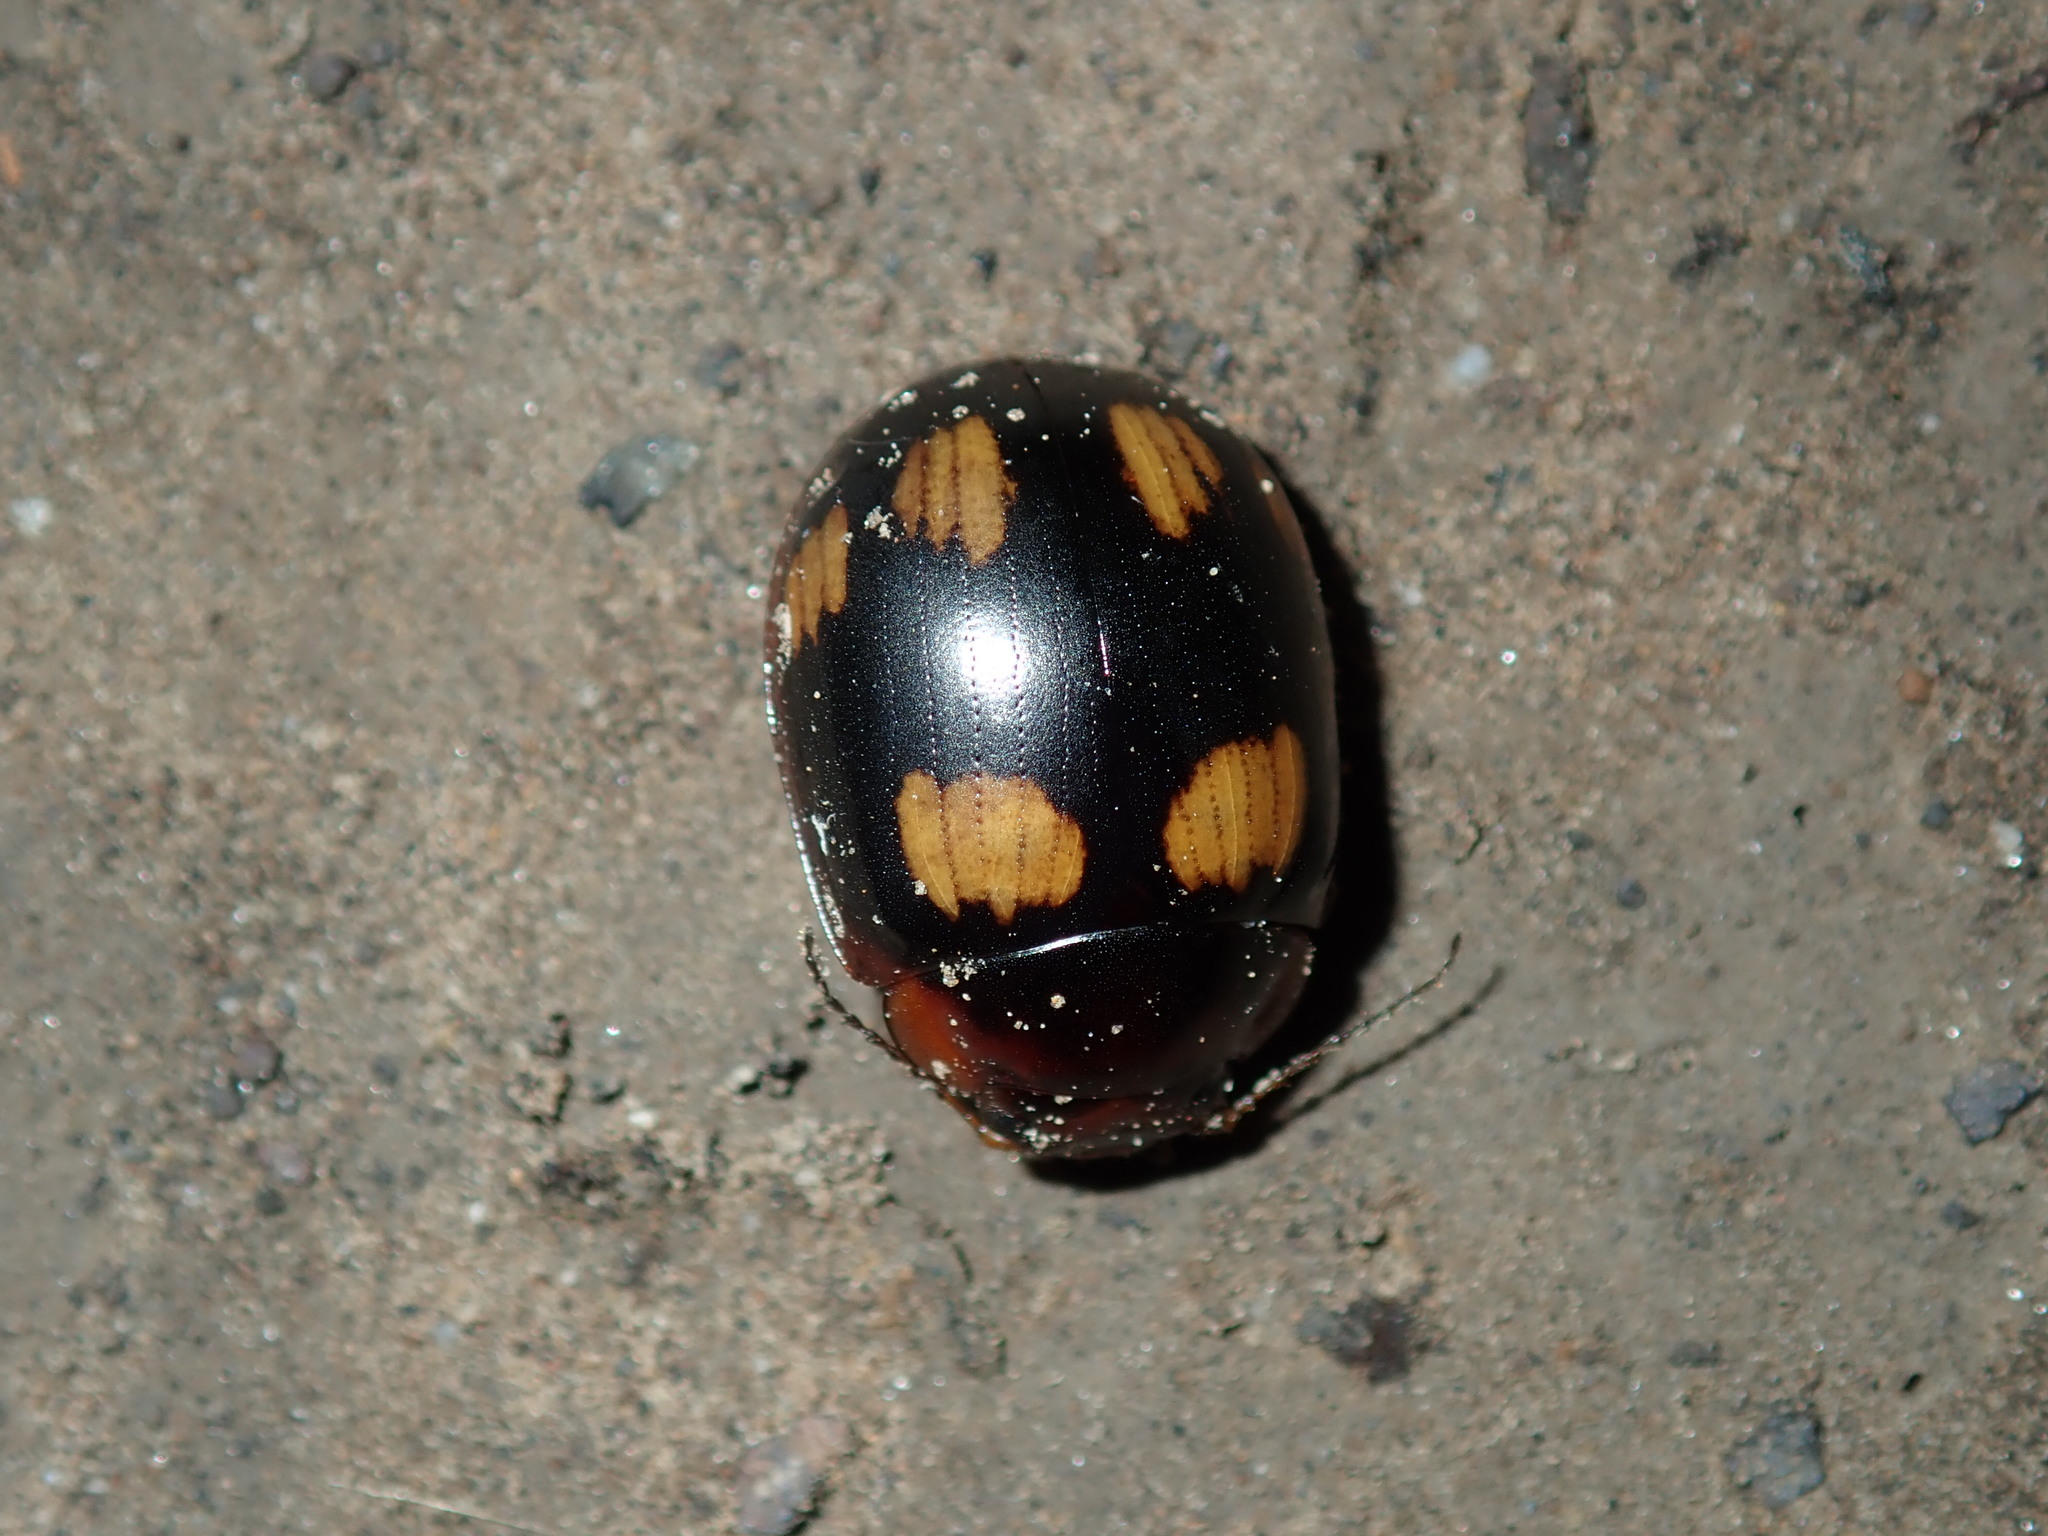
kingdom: Animalia
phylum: Arthropoda
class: Insecta
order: Coleoptera
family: Chrysomelidae
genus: Paropsisterna
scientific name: Paropsisterna
